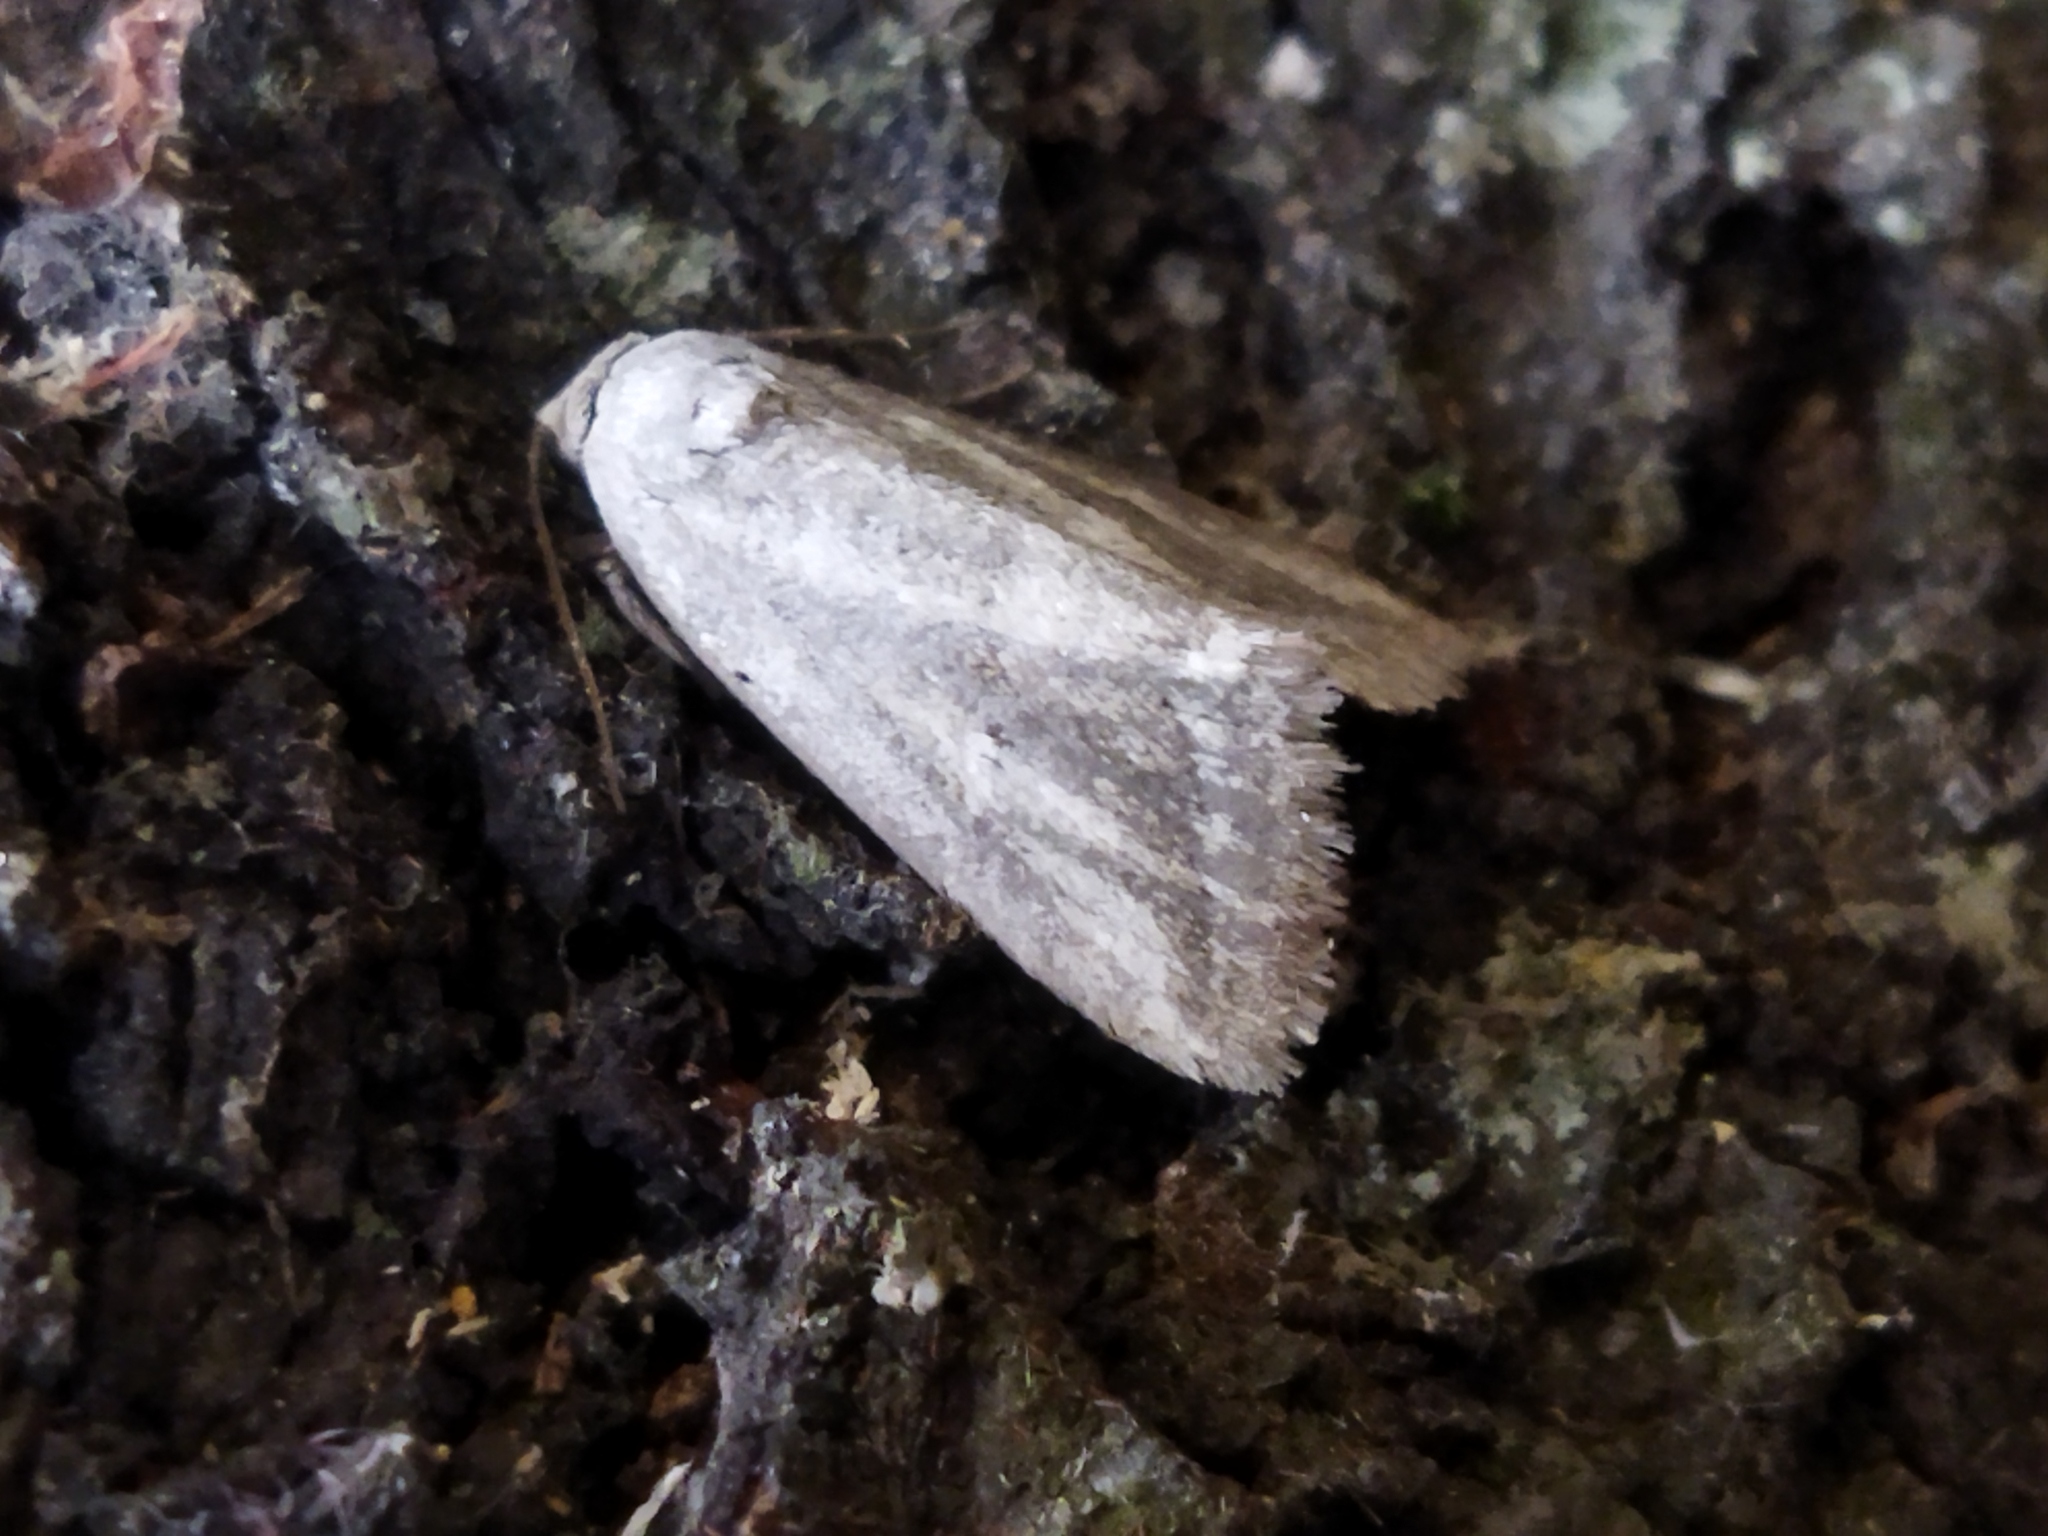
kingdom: Animalia
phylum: Arthropoda
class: Insecta
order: Lepidoptera
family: Noctuidae
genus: Phyllophila
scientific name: Phyllophila obliterata
